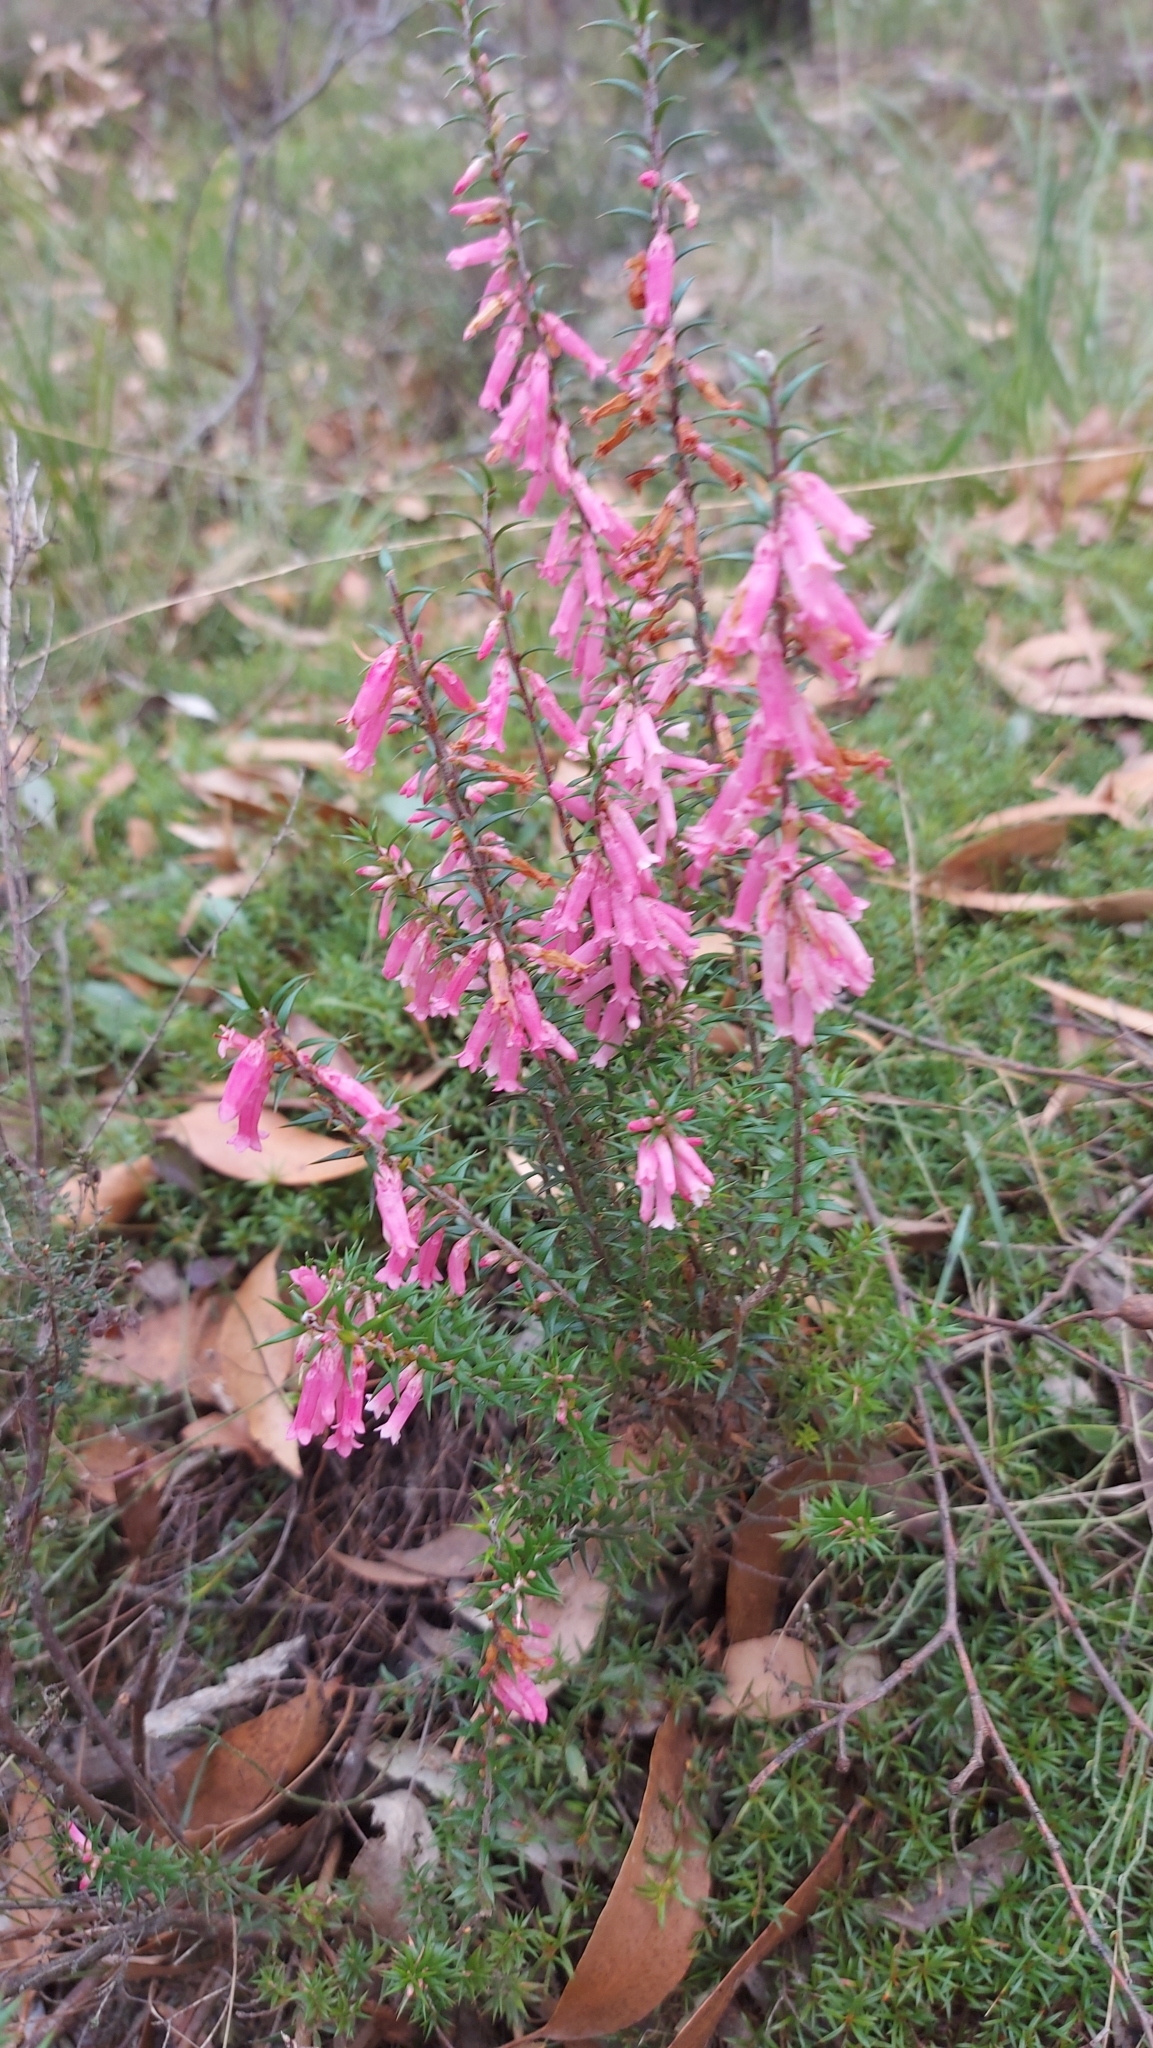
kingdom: Plantae
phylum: Tracheophyta
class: Magnoliopsida
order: Ericales
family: Ericaceae
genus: Epacris
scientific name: Epacris impressa
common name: Common-heath
